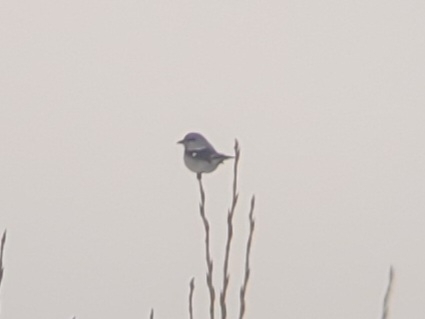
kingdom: Animalia
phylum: Chordata
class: Aves
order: Passeriformes
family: Laniidae
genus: Lanius
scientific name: Lanius borealis
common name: Northern shrike
